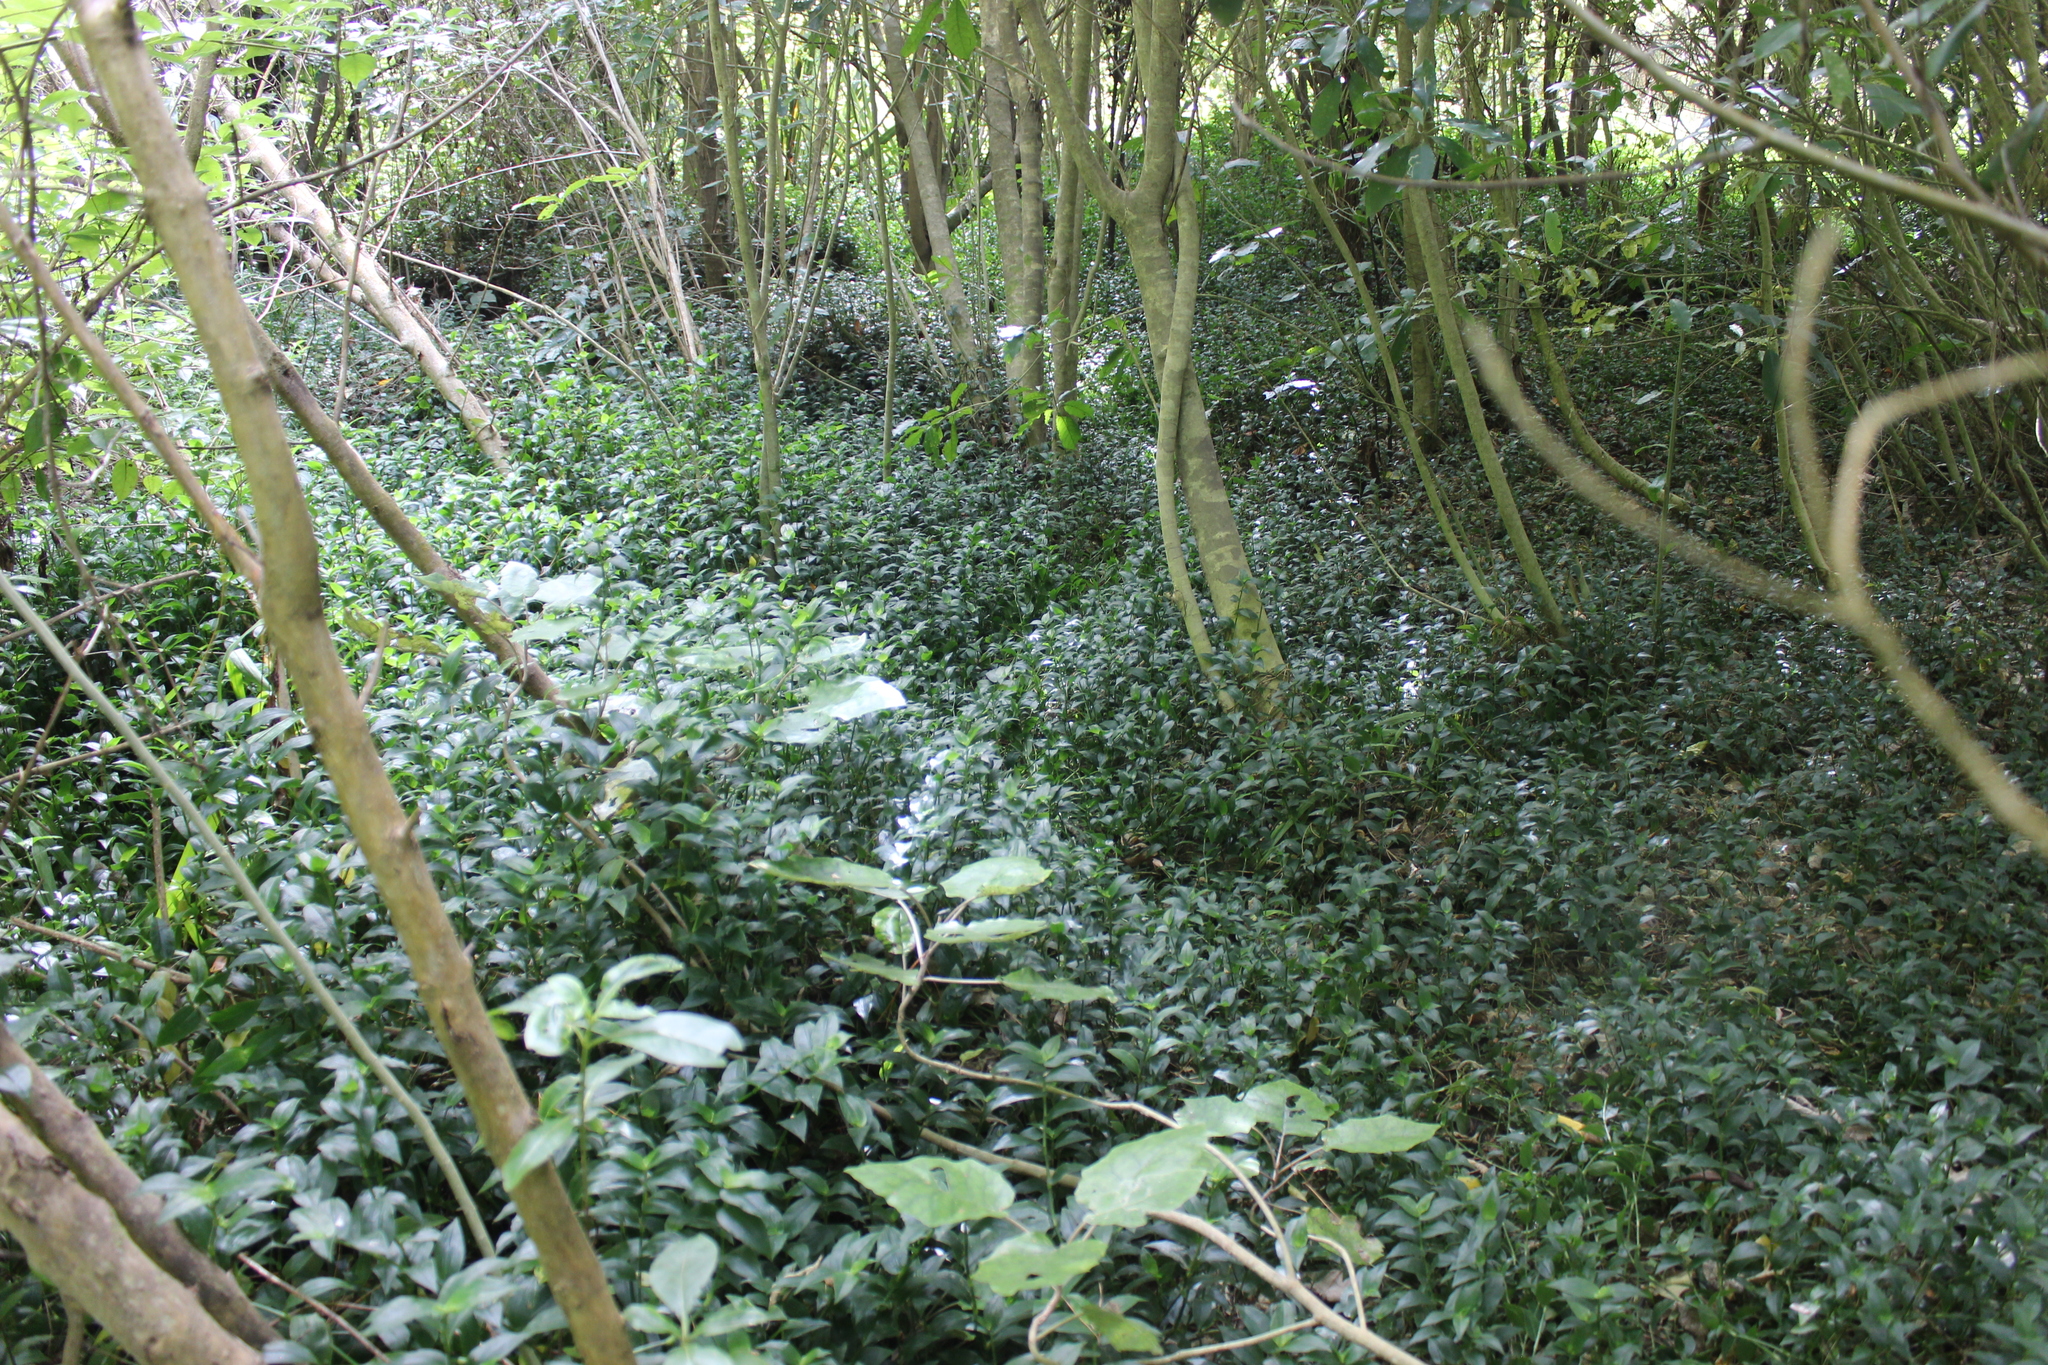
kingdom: Plantae
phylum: Tracheophyta
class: Liliopsida
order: Commelinales
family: Commelinaceae
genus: Tradescantia
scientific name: Tradescantia fluminensis
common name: Wandering-jew
